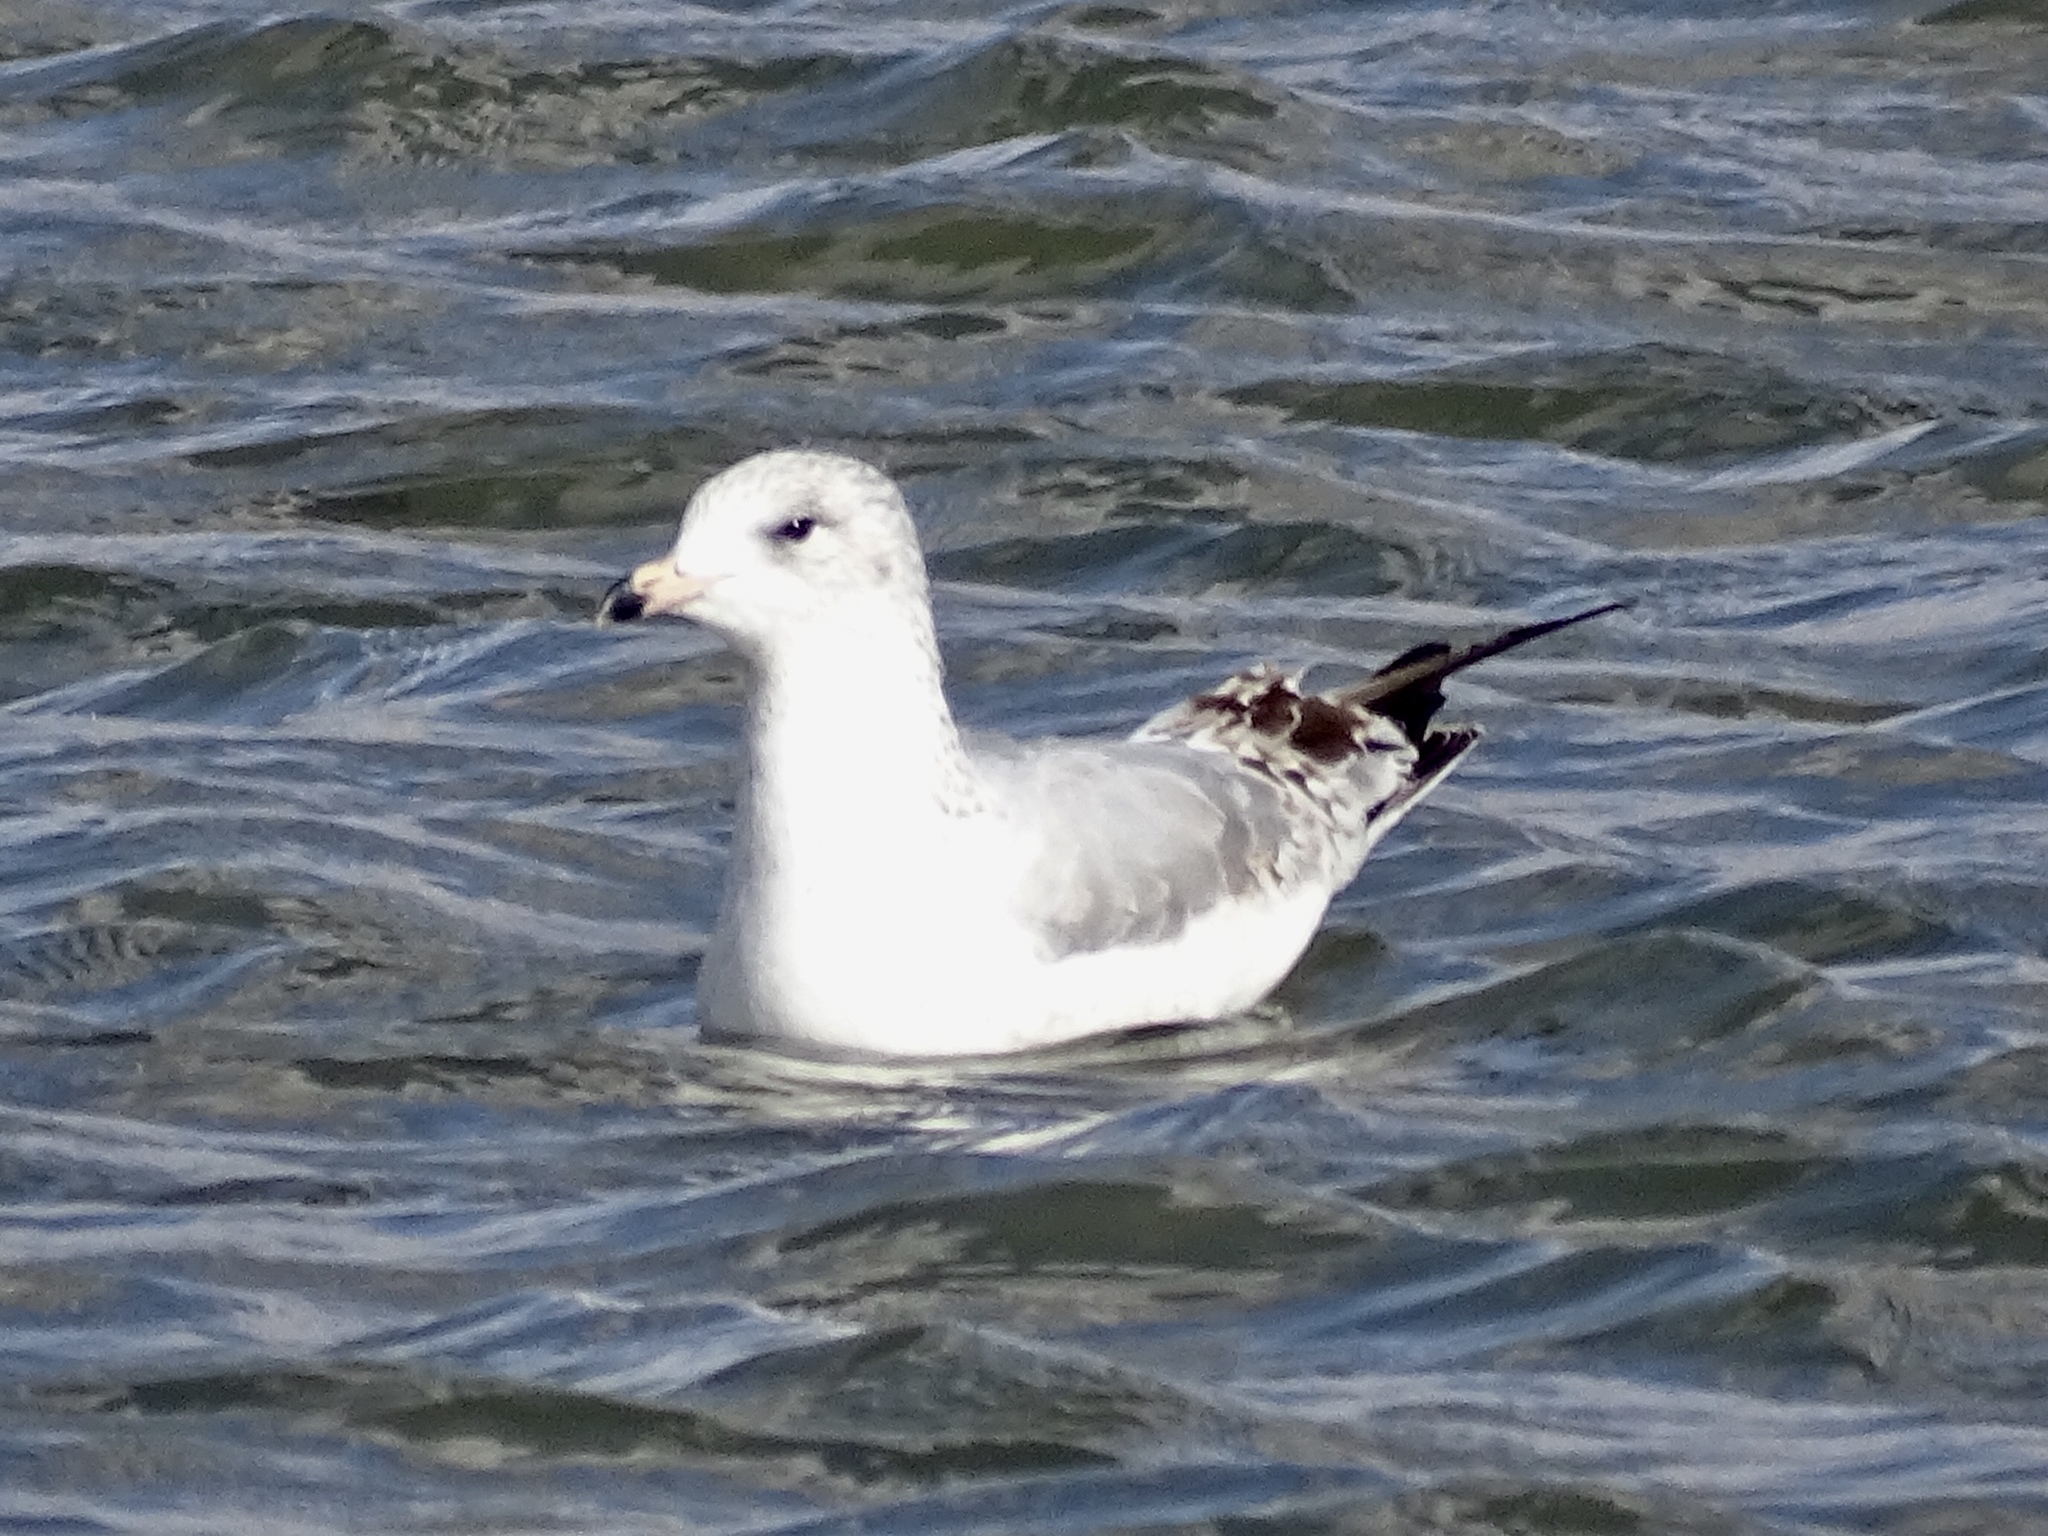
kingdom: Animalia
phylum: Chordata
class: Aves
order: Charadriiformes
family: Laridae
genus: Larus
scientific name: Larus delawarensis
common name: Ring-billed gull
